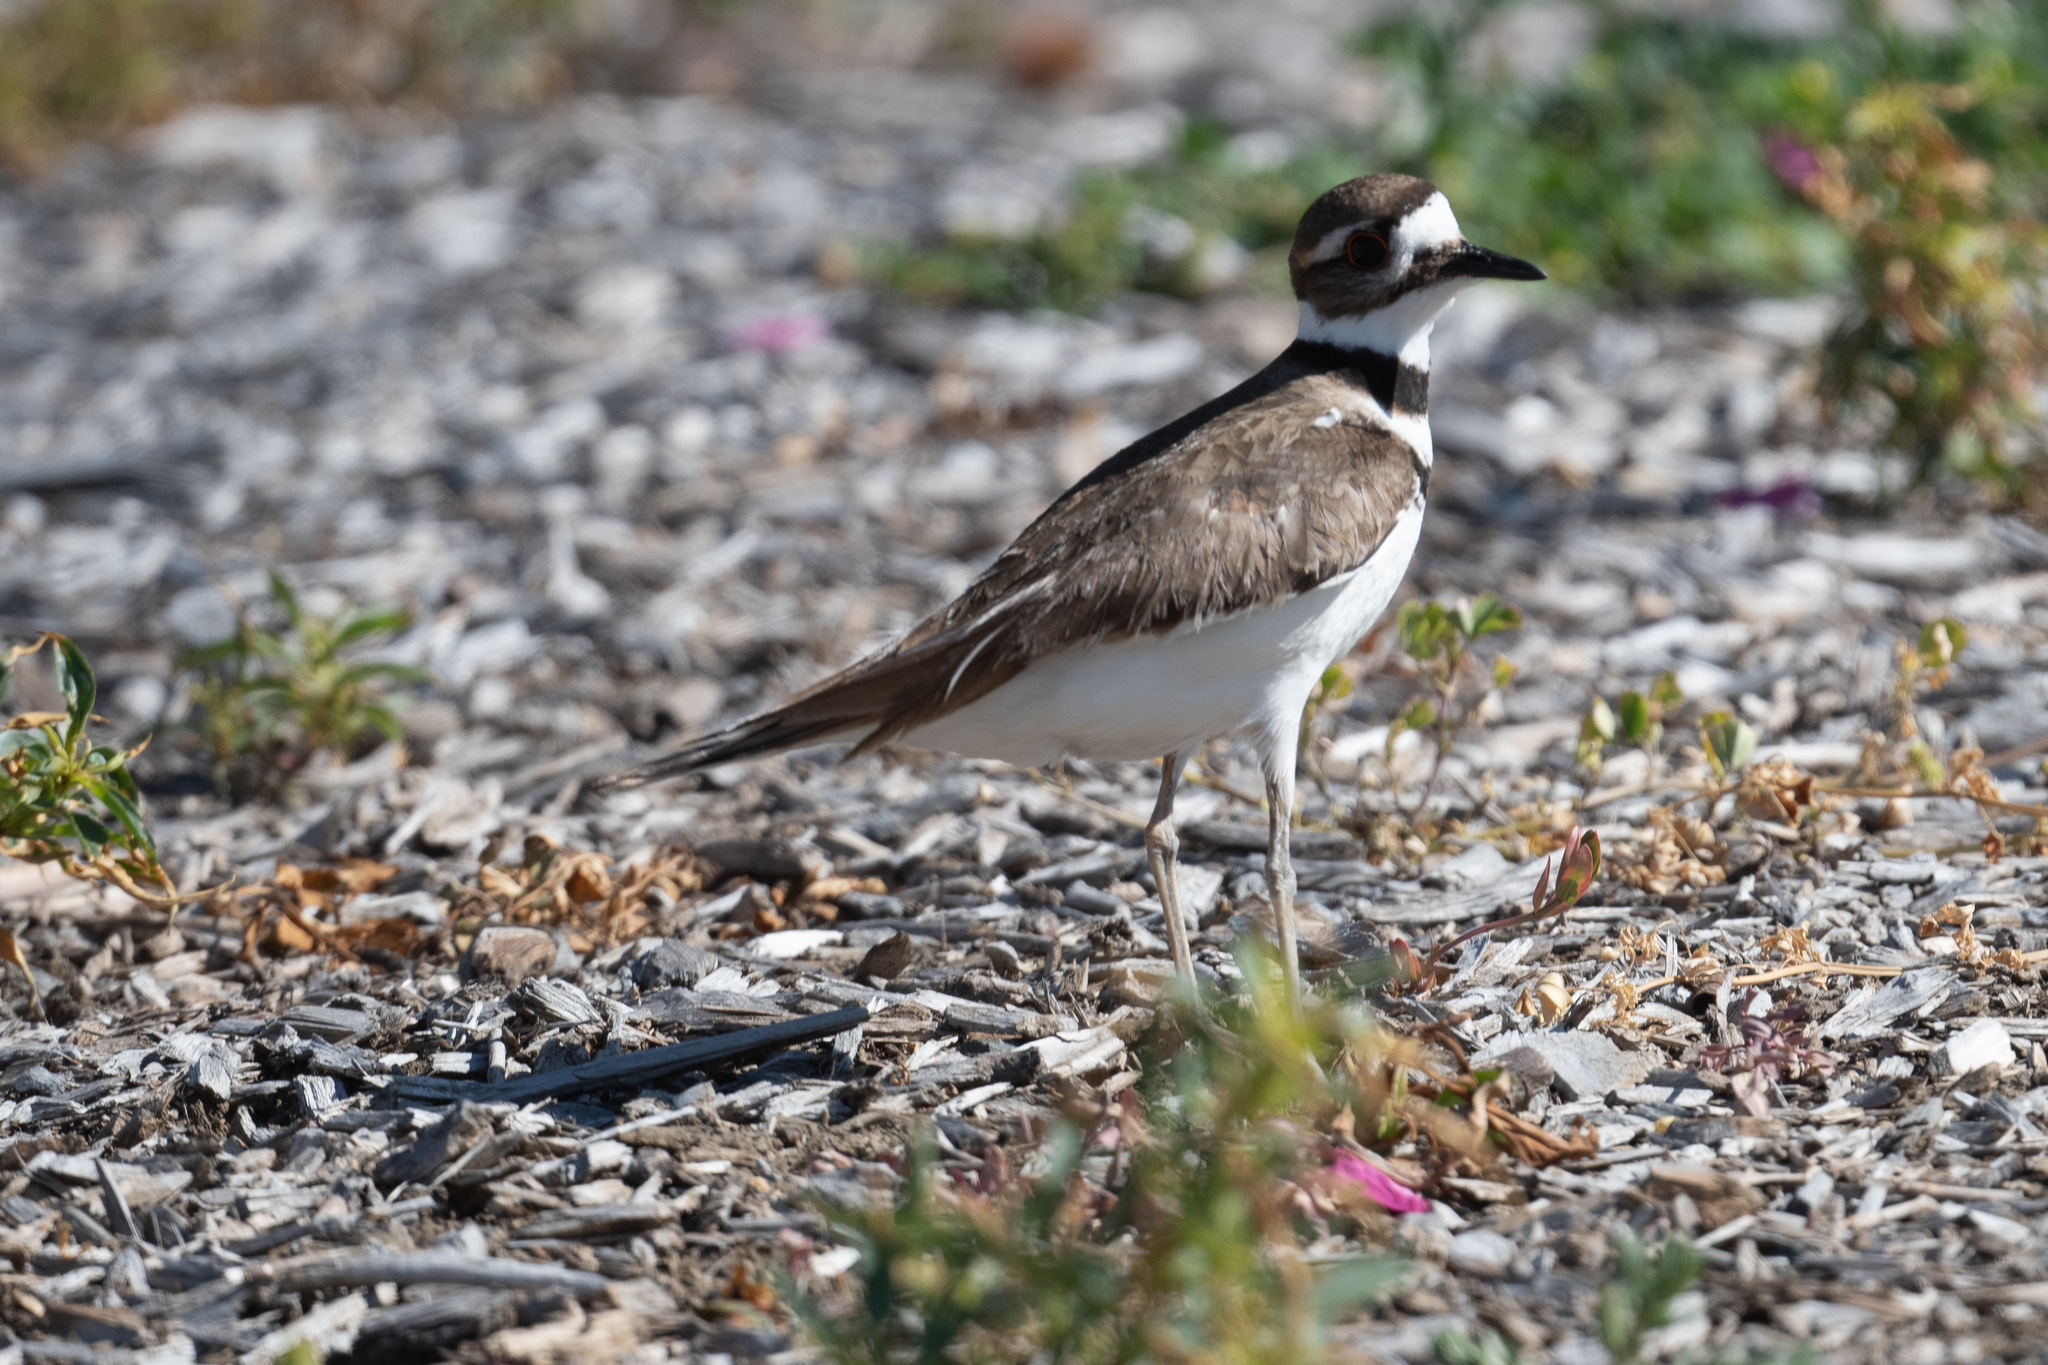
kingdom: Animalia
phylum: Chordata
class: Aves
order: Charadriiformes
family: Charadriidae
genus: Charadrius
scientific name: Charadrius vociferus
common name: Killdeer
